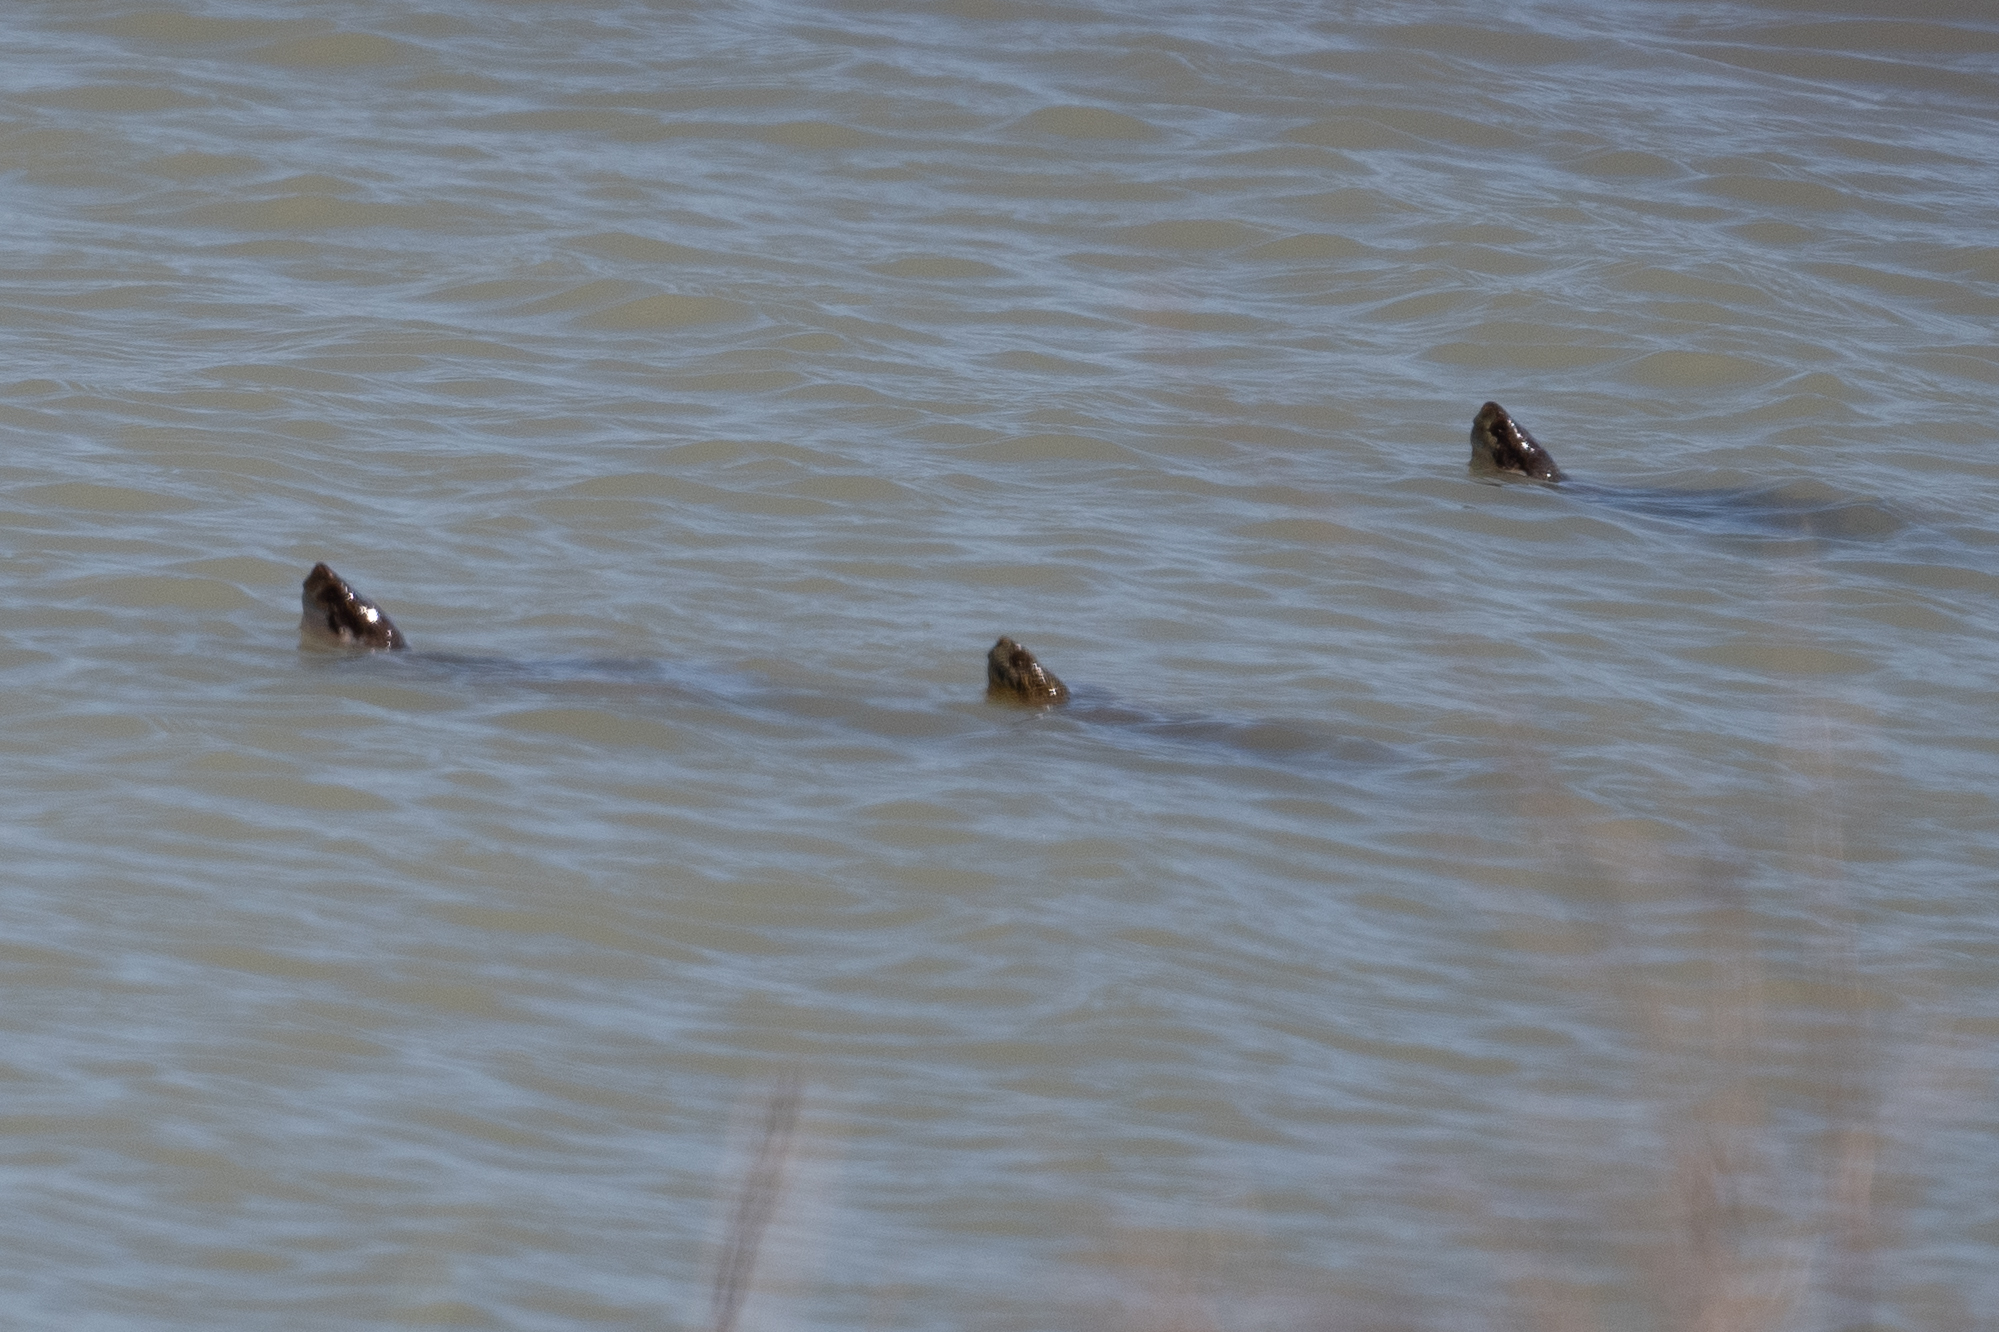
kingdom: Animalia
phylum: Chordata
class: Testudines
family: Emydidae
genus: Actinemys
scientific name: Actinemys marmorata
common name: Western pond turtle
